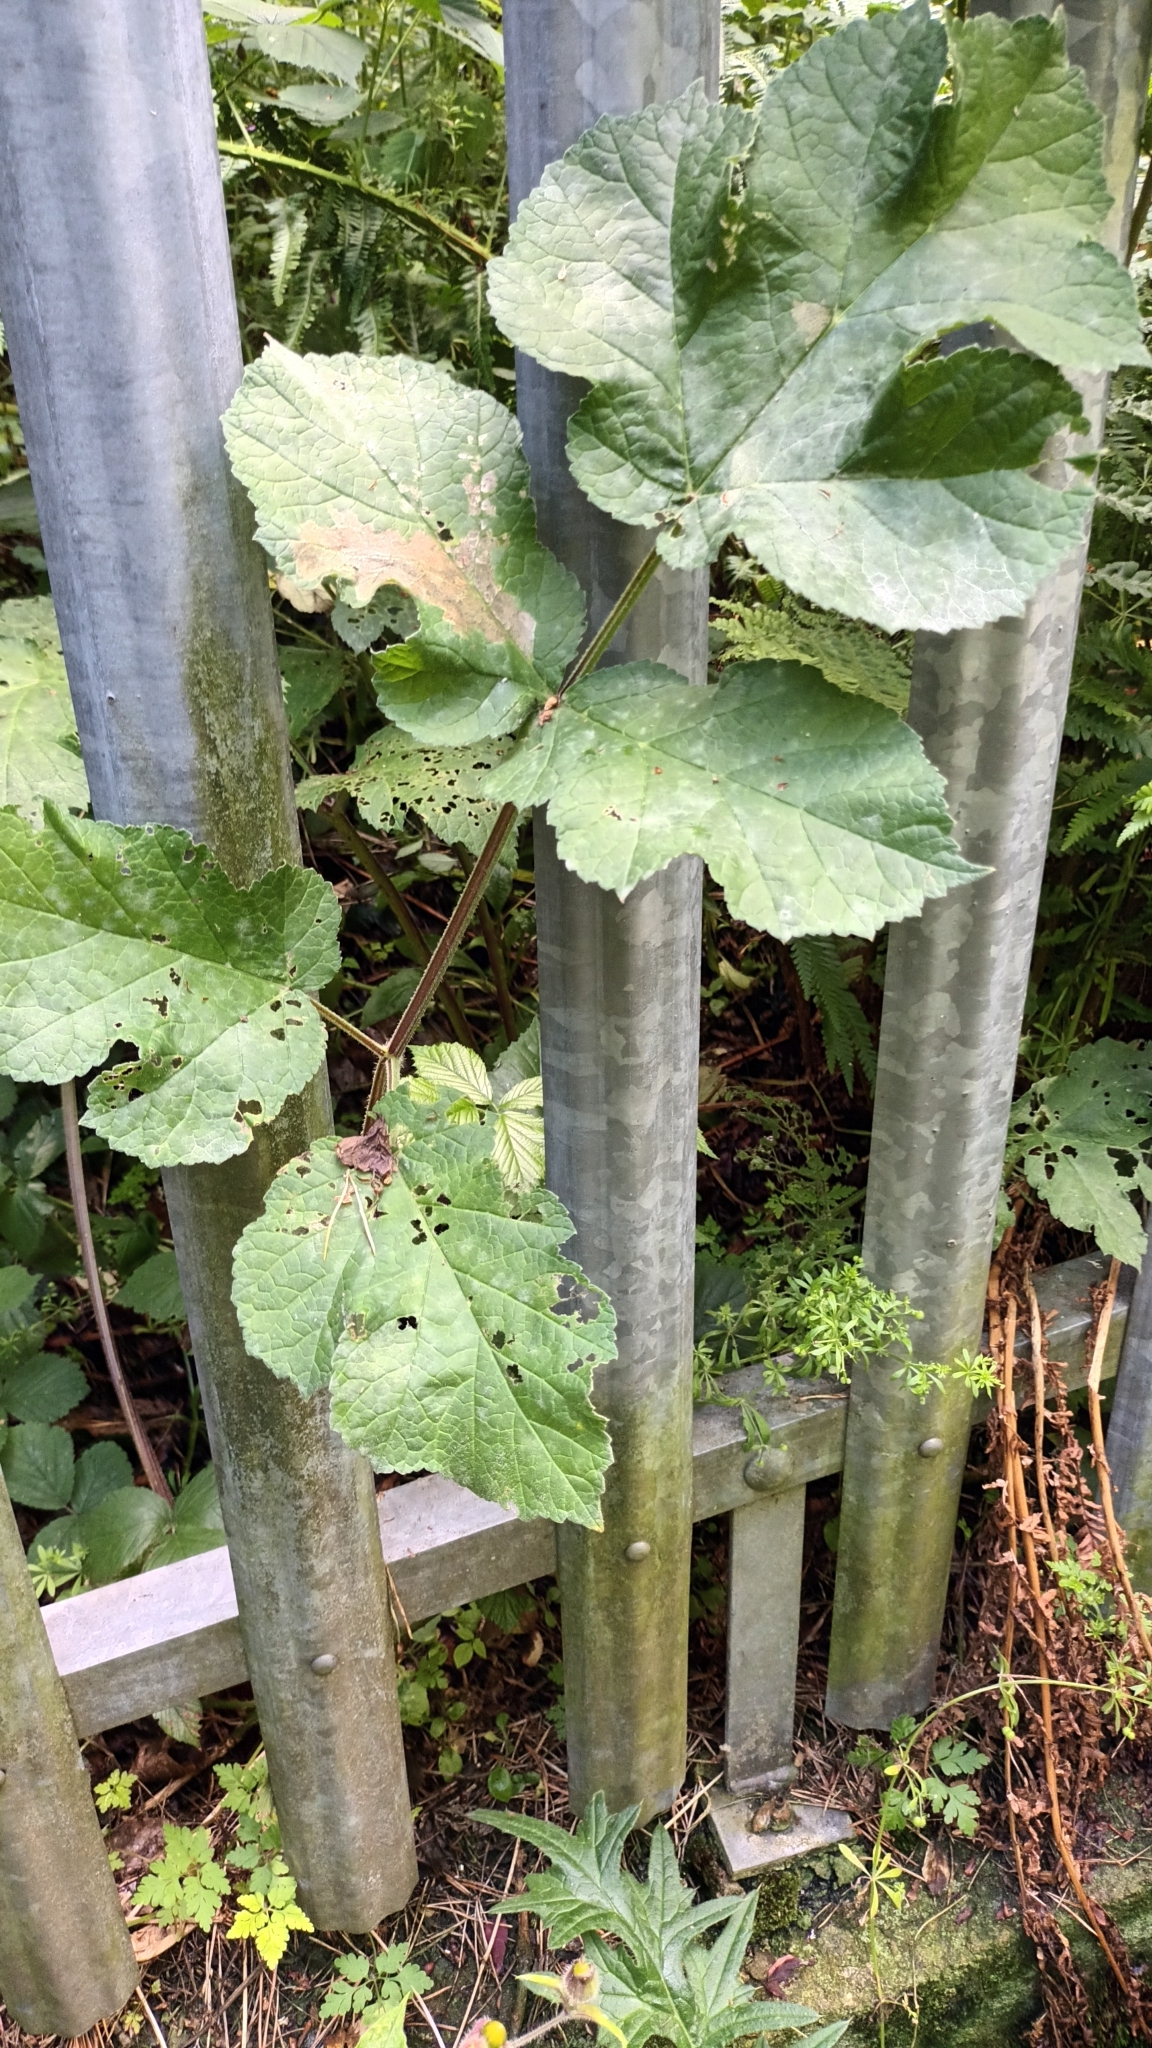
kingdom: Plantae
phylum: Tracheophyta
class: Magnoliopsida
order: Apiales
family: Apiaceae
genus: Heracleum
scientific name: Heracleum sphondylium
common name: Hogweed
